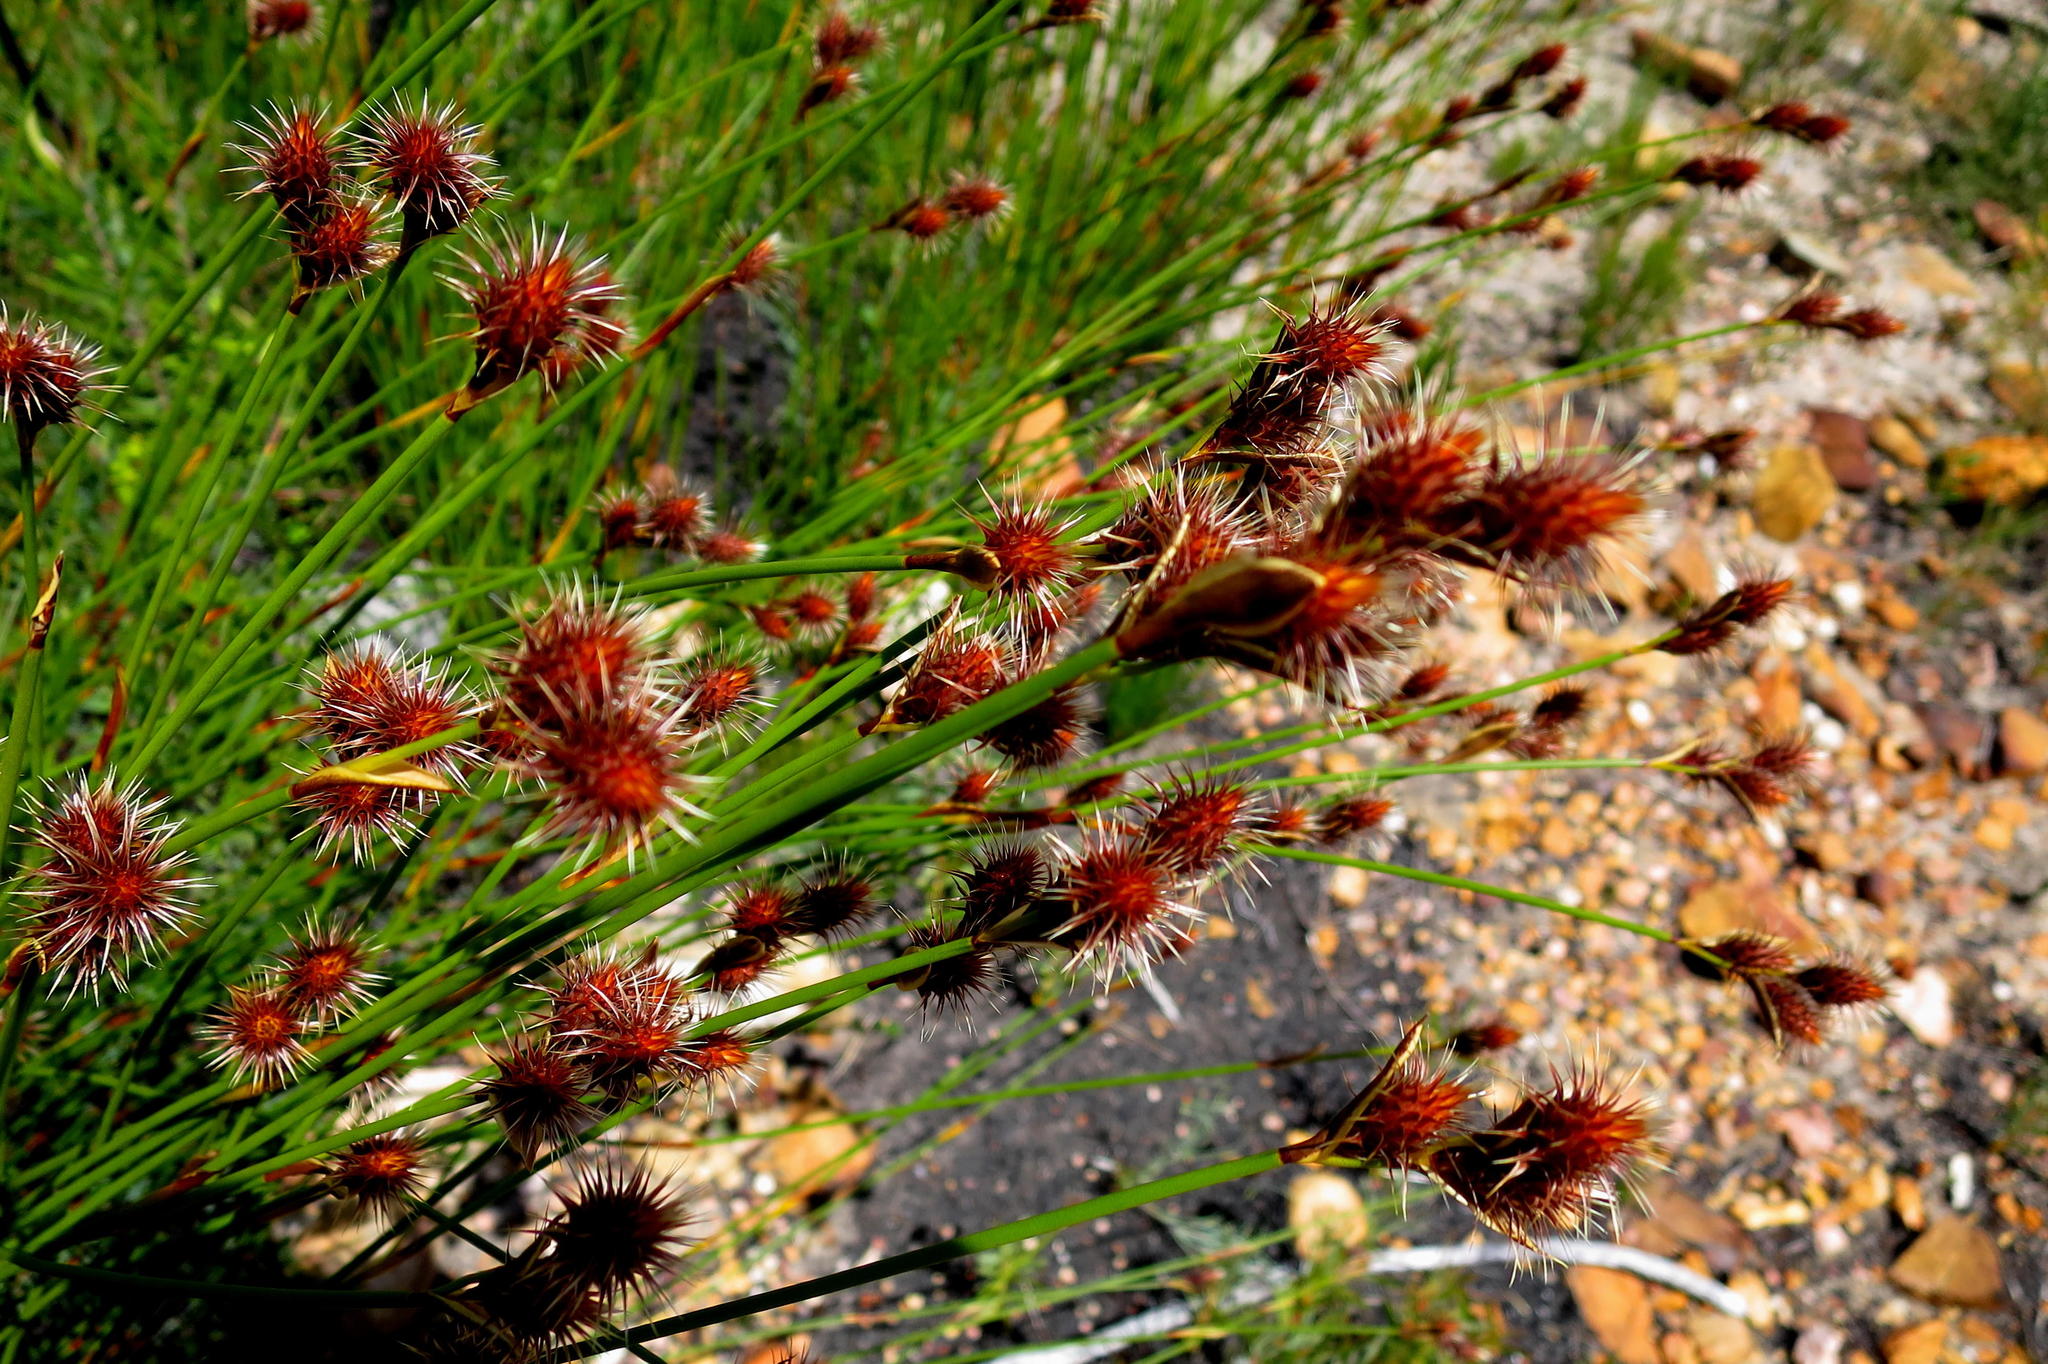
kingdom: Plantae
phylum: Tracheophyta
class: Liliopsida
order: Poales
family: Restionaceae
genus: Hypodiscus
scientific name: Hypodiscus aristatus
